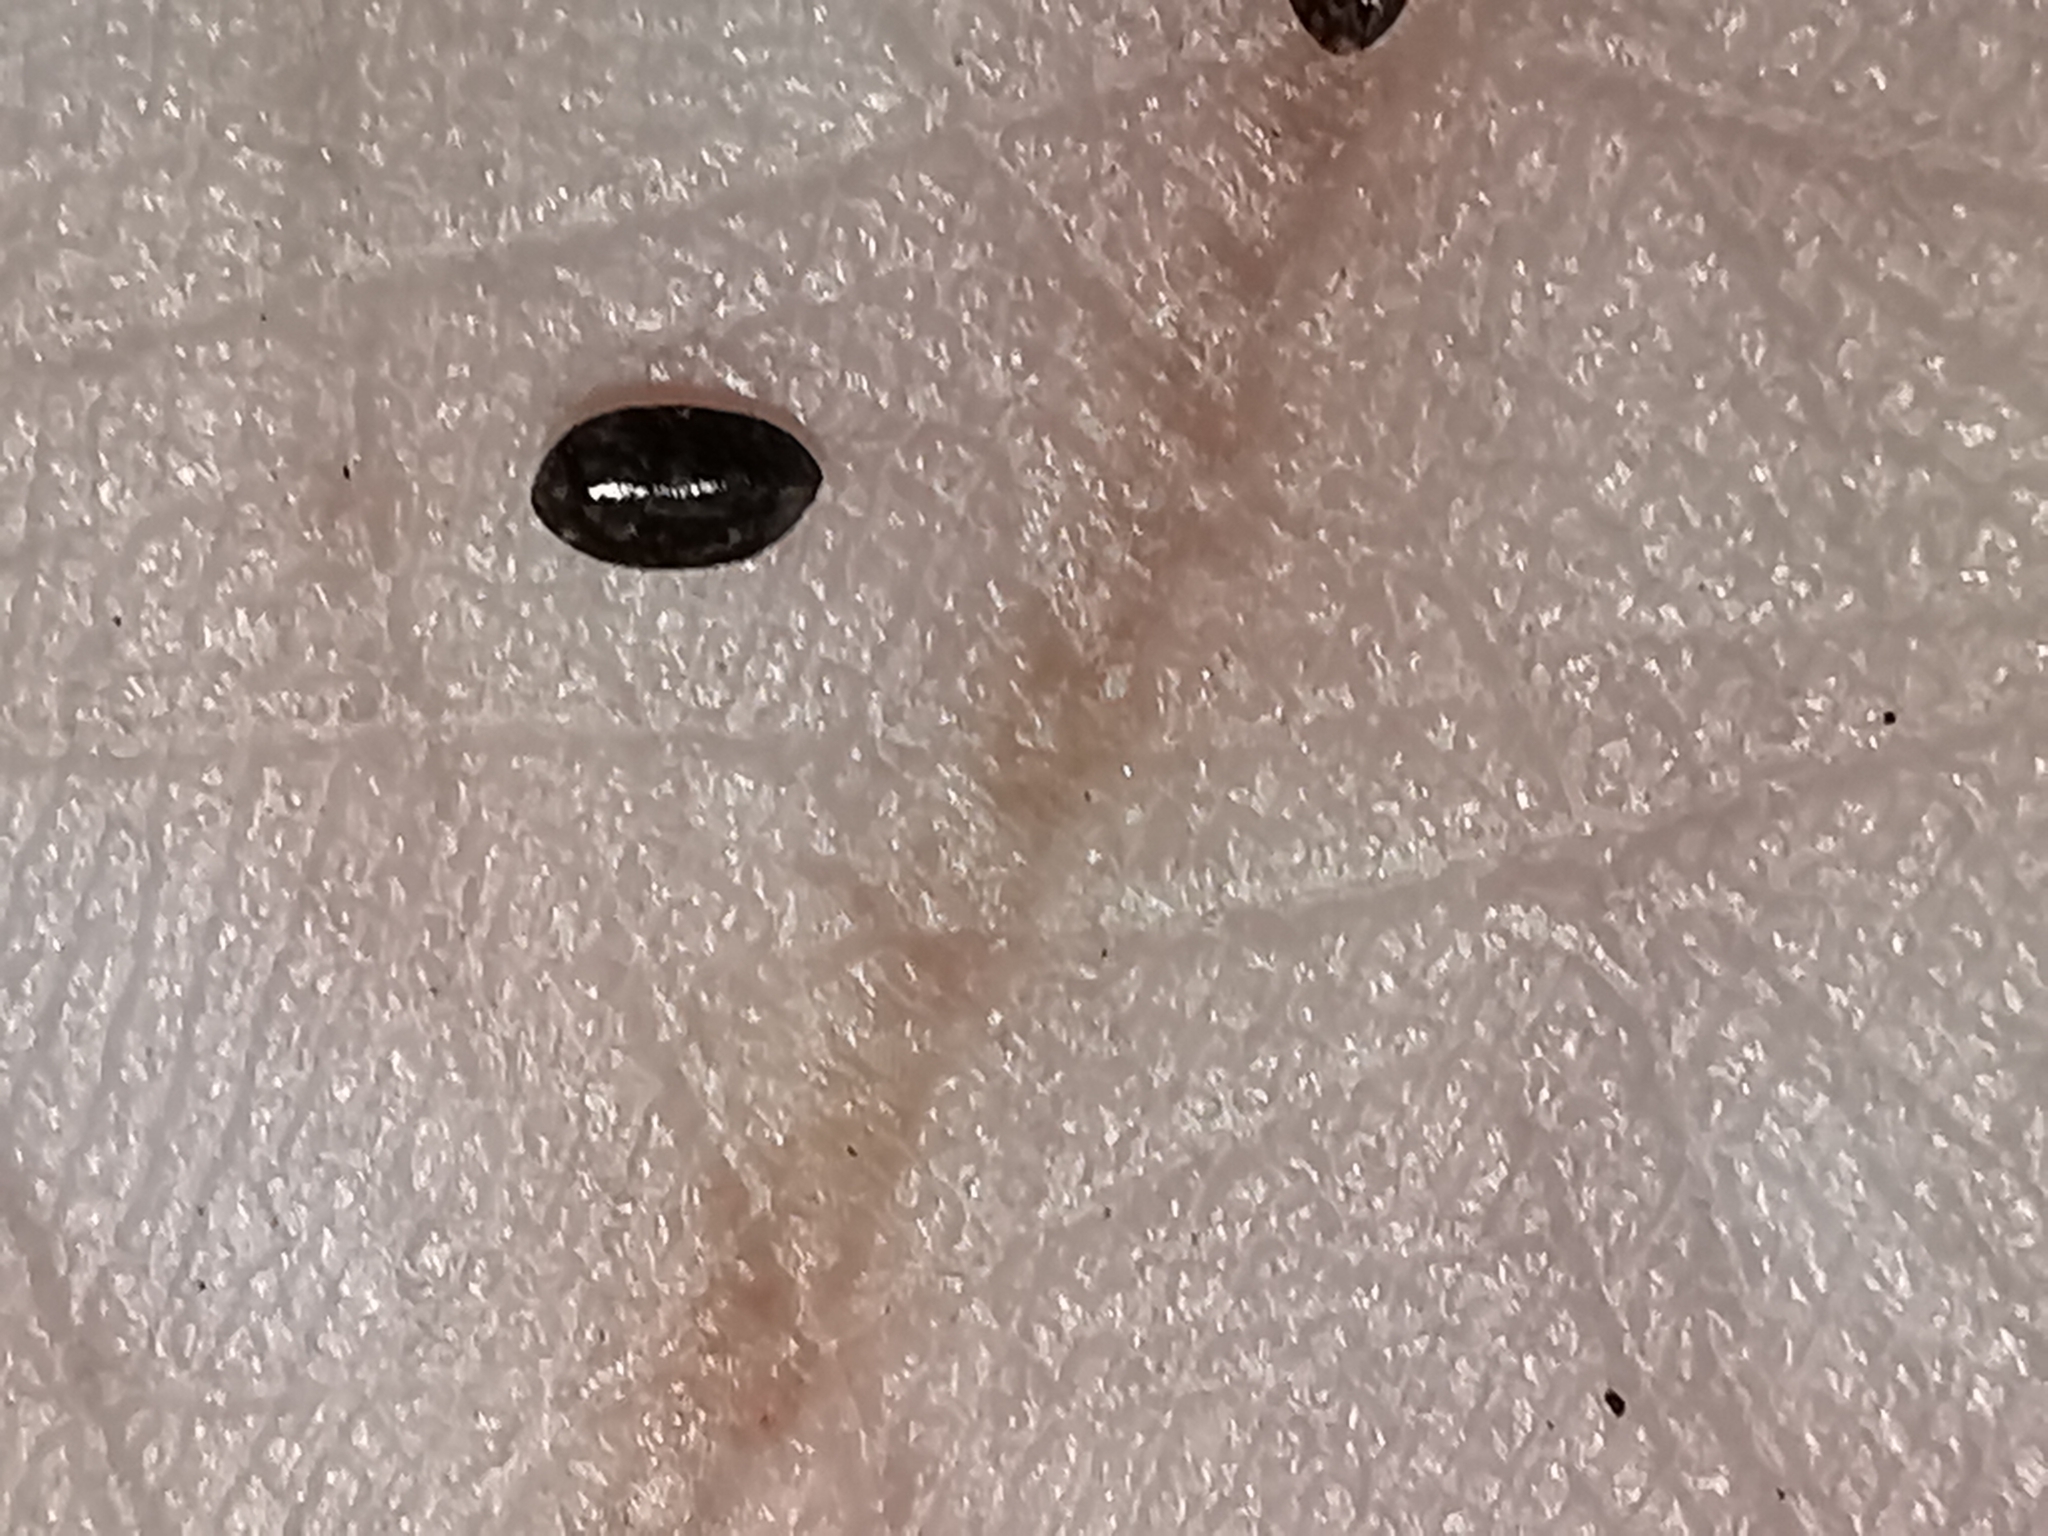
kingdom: Plantae
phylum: Tracheophyta
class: Magnoliopsida
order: Asterales
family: Asteraceae
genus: Greenmaniella
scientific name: Greenmaniella resinosa
